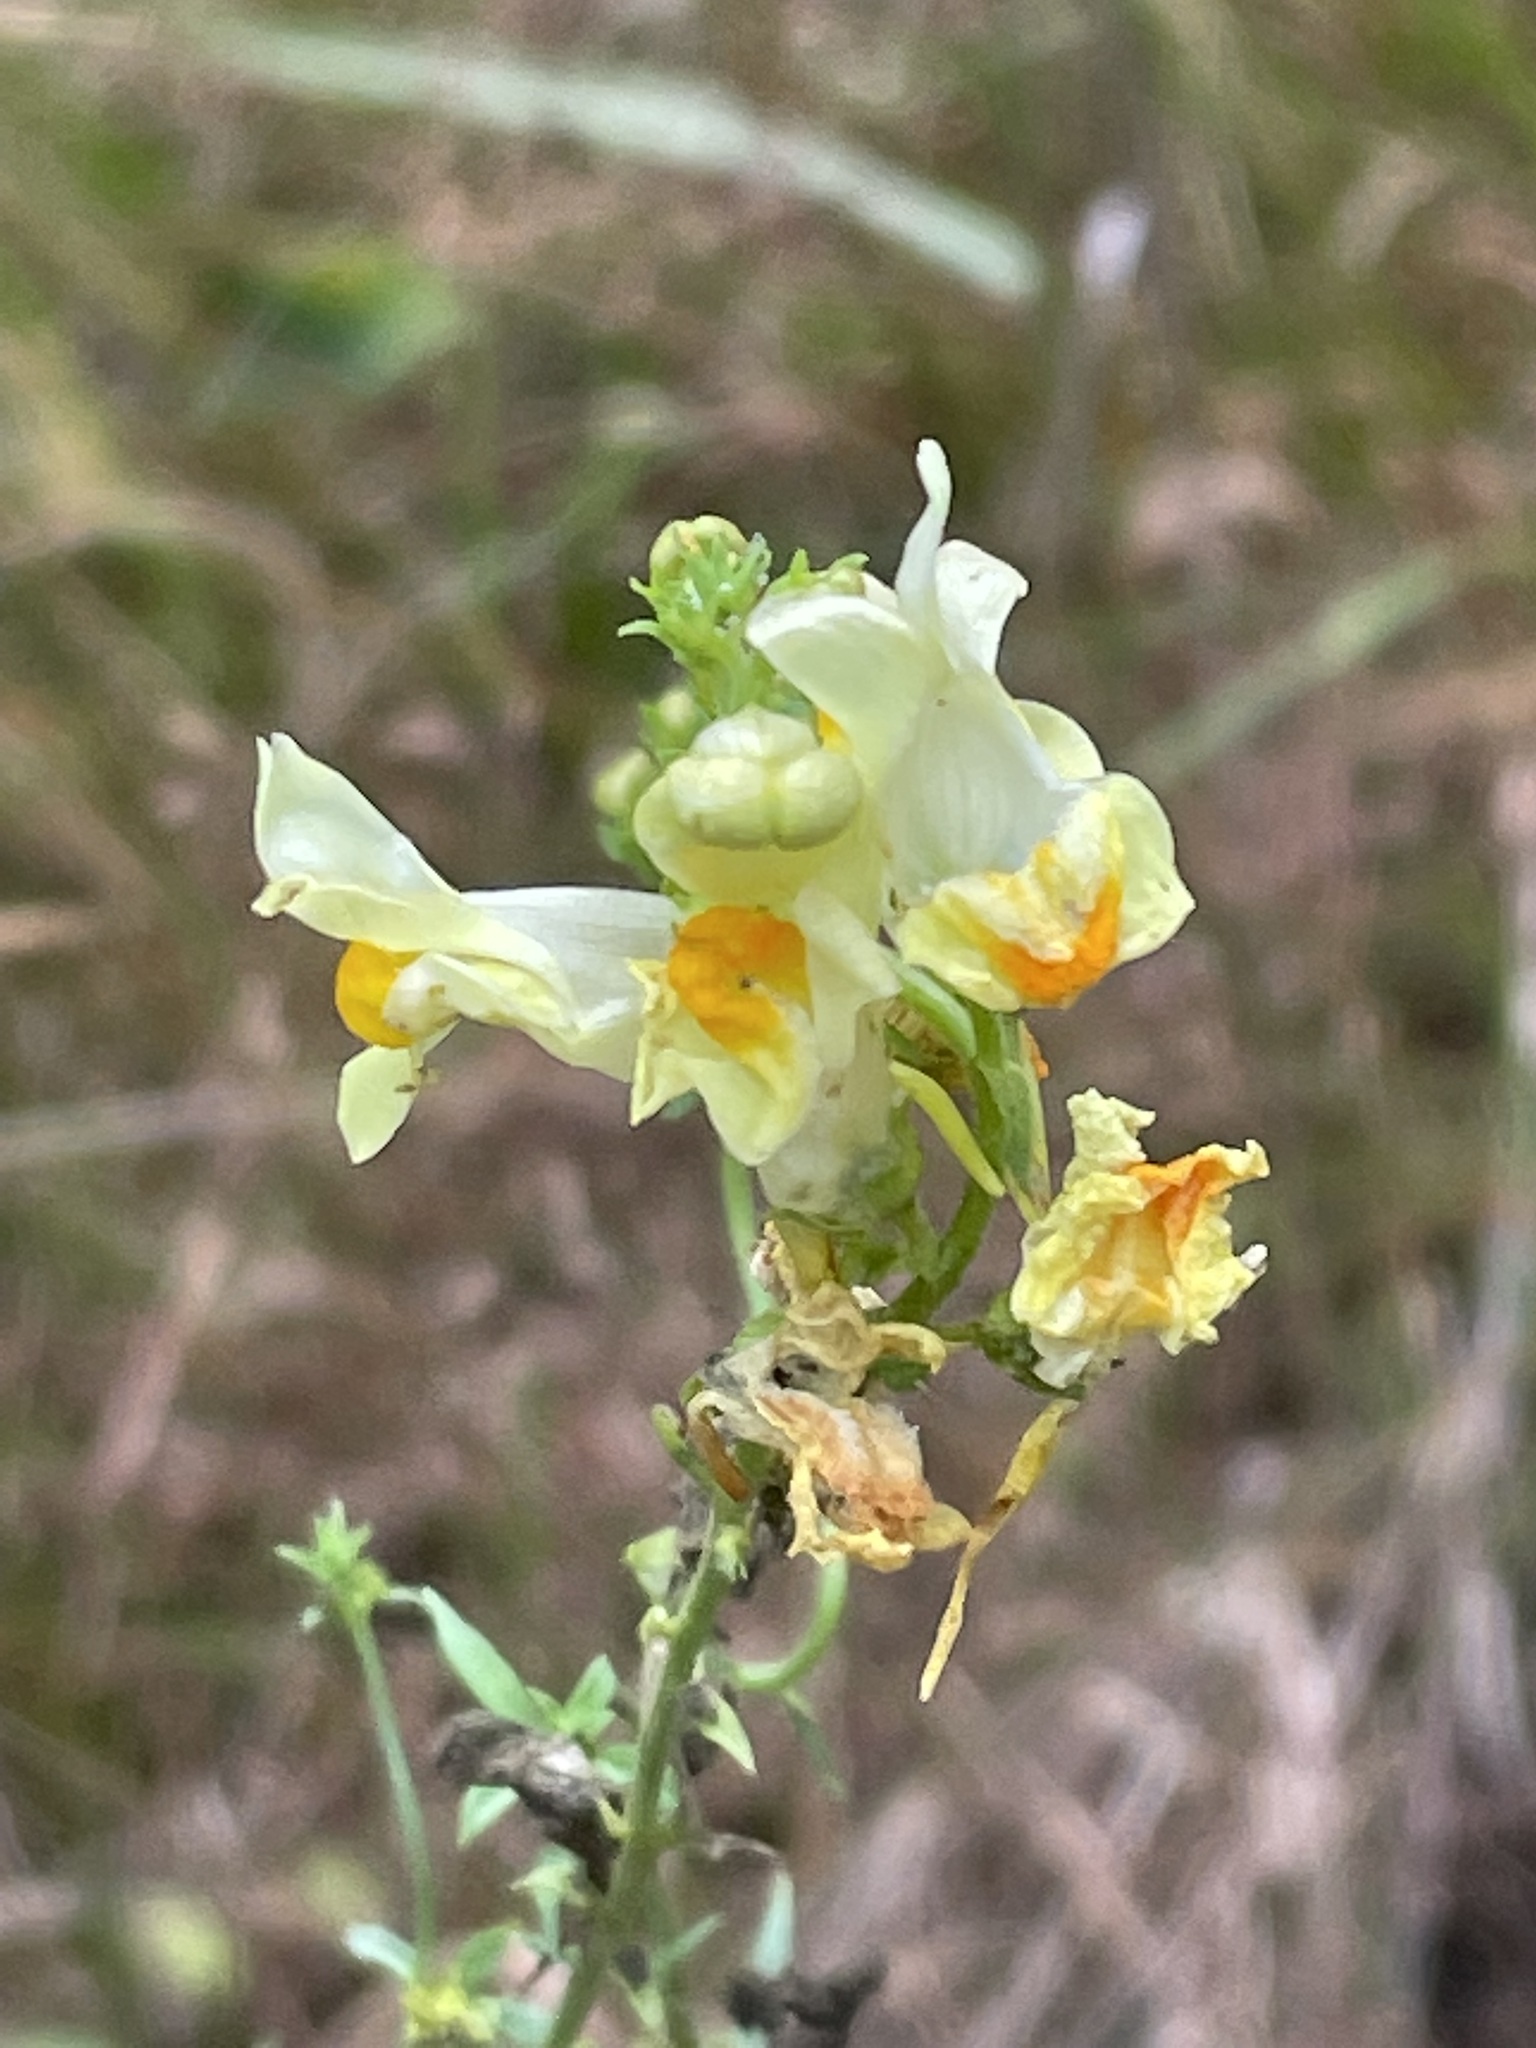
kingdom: Plantae
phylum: Tracheophyta
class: Magnoliopsida
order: Lamiales
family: Plantaginaceae
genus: Linaria
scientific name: Linaria vulgaris
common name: Butter and eggs
